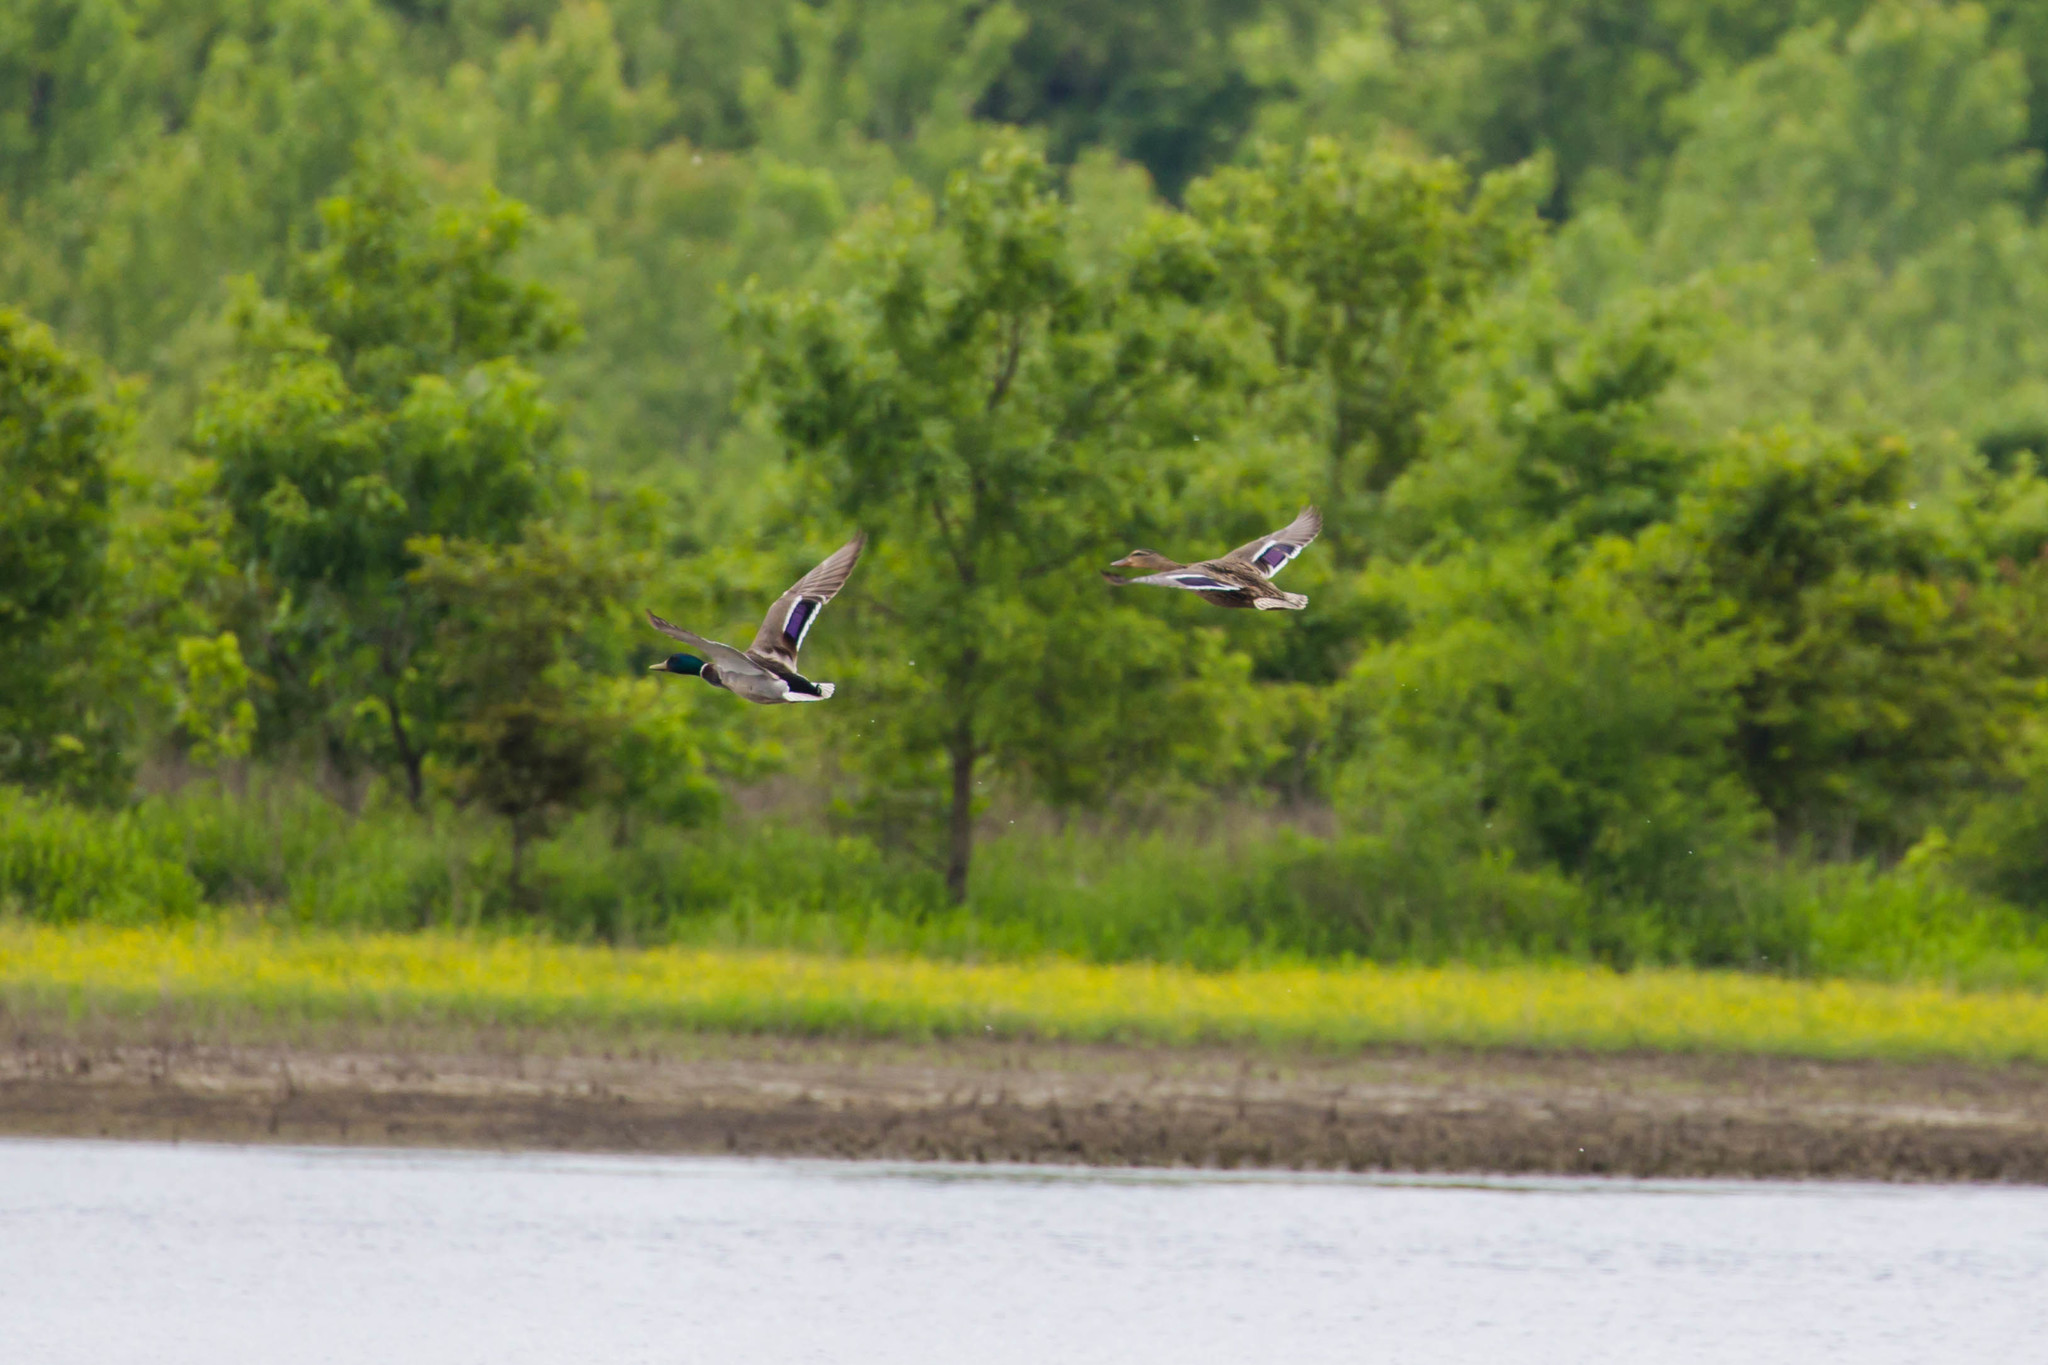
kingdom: Animalia
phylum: Chordata
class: Aves
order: Anseriformes
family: Anatidae
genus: Anas
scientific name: Anas platyrhynchos
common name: Mallard
